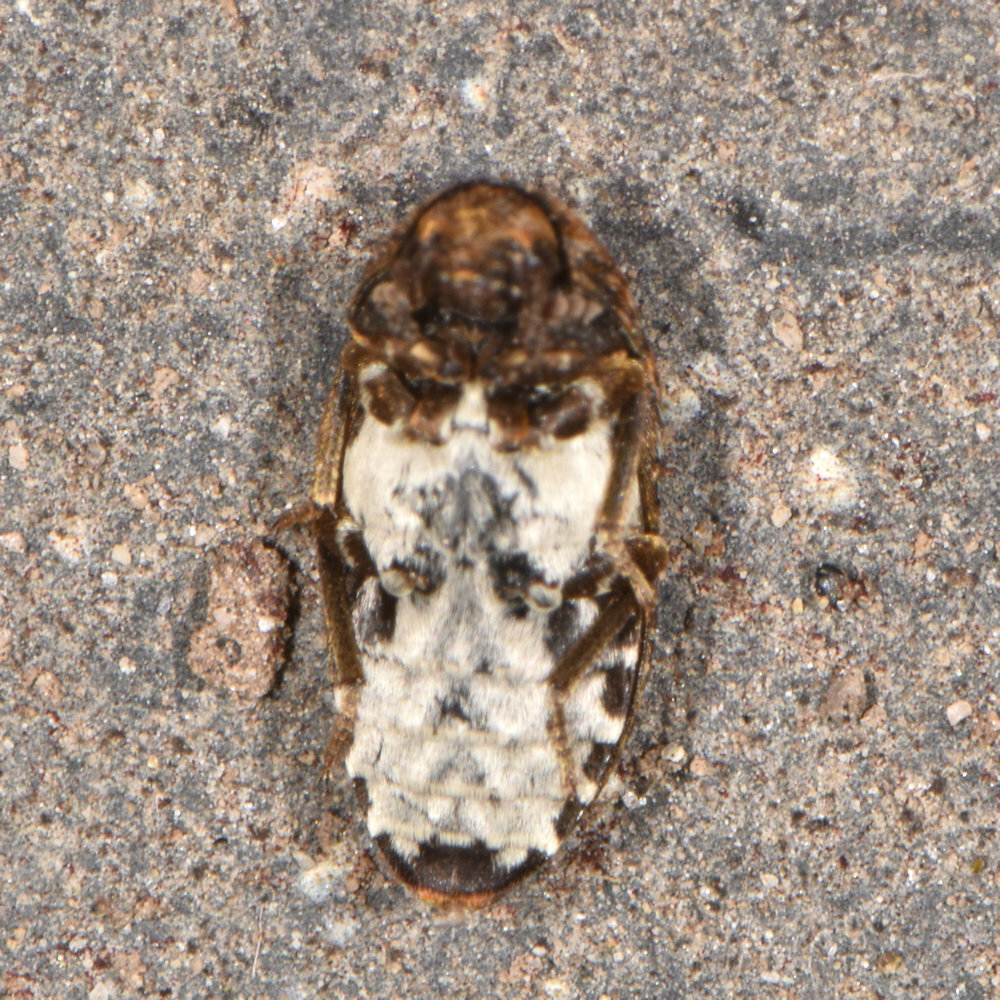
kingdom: Animalia
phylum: Arthropoda
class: Insecta
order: Coleoptera
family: Dermestidae
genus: Dermestes
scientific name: Dermestes undulatus
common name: Wavy carpet beetle
